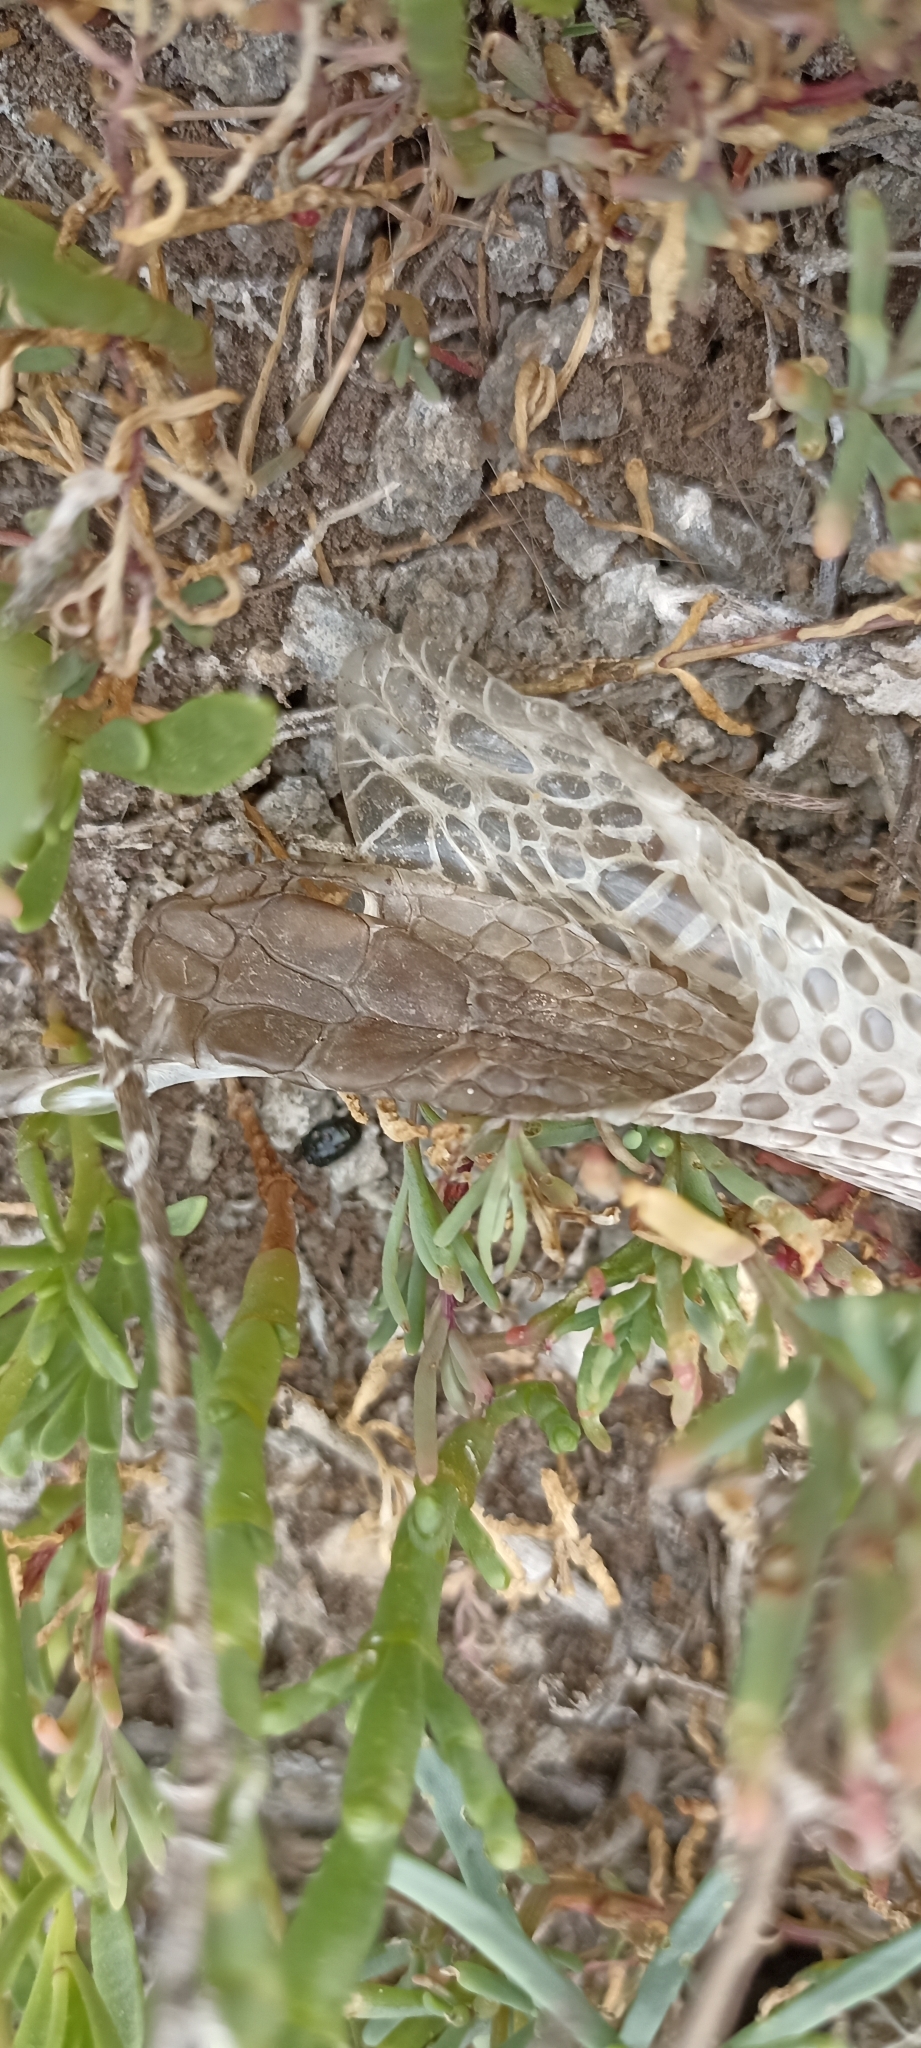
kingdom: Animalia
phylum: Chordata
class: Squamata
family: Psammophiidae
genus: Malpolon
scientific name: Malpolon monspessulanus
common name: Montpellier snake
